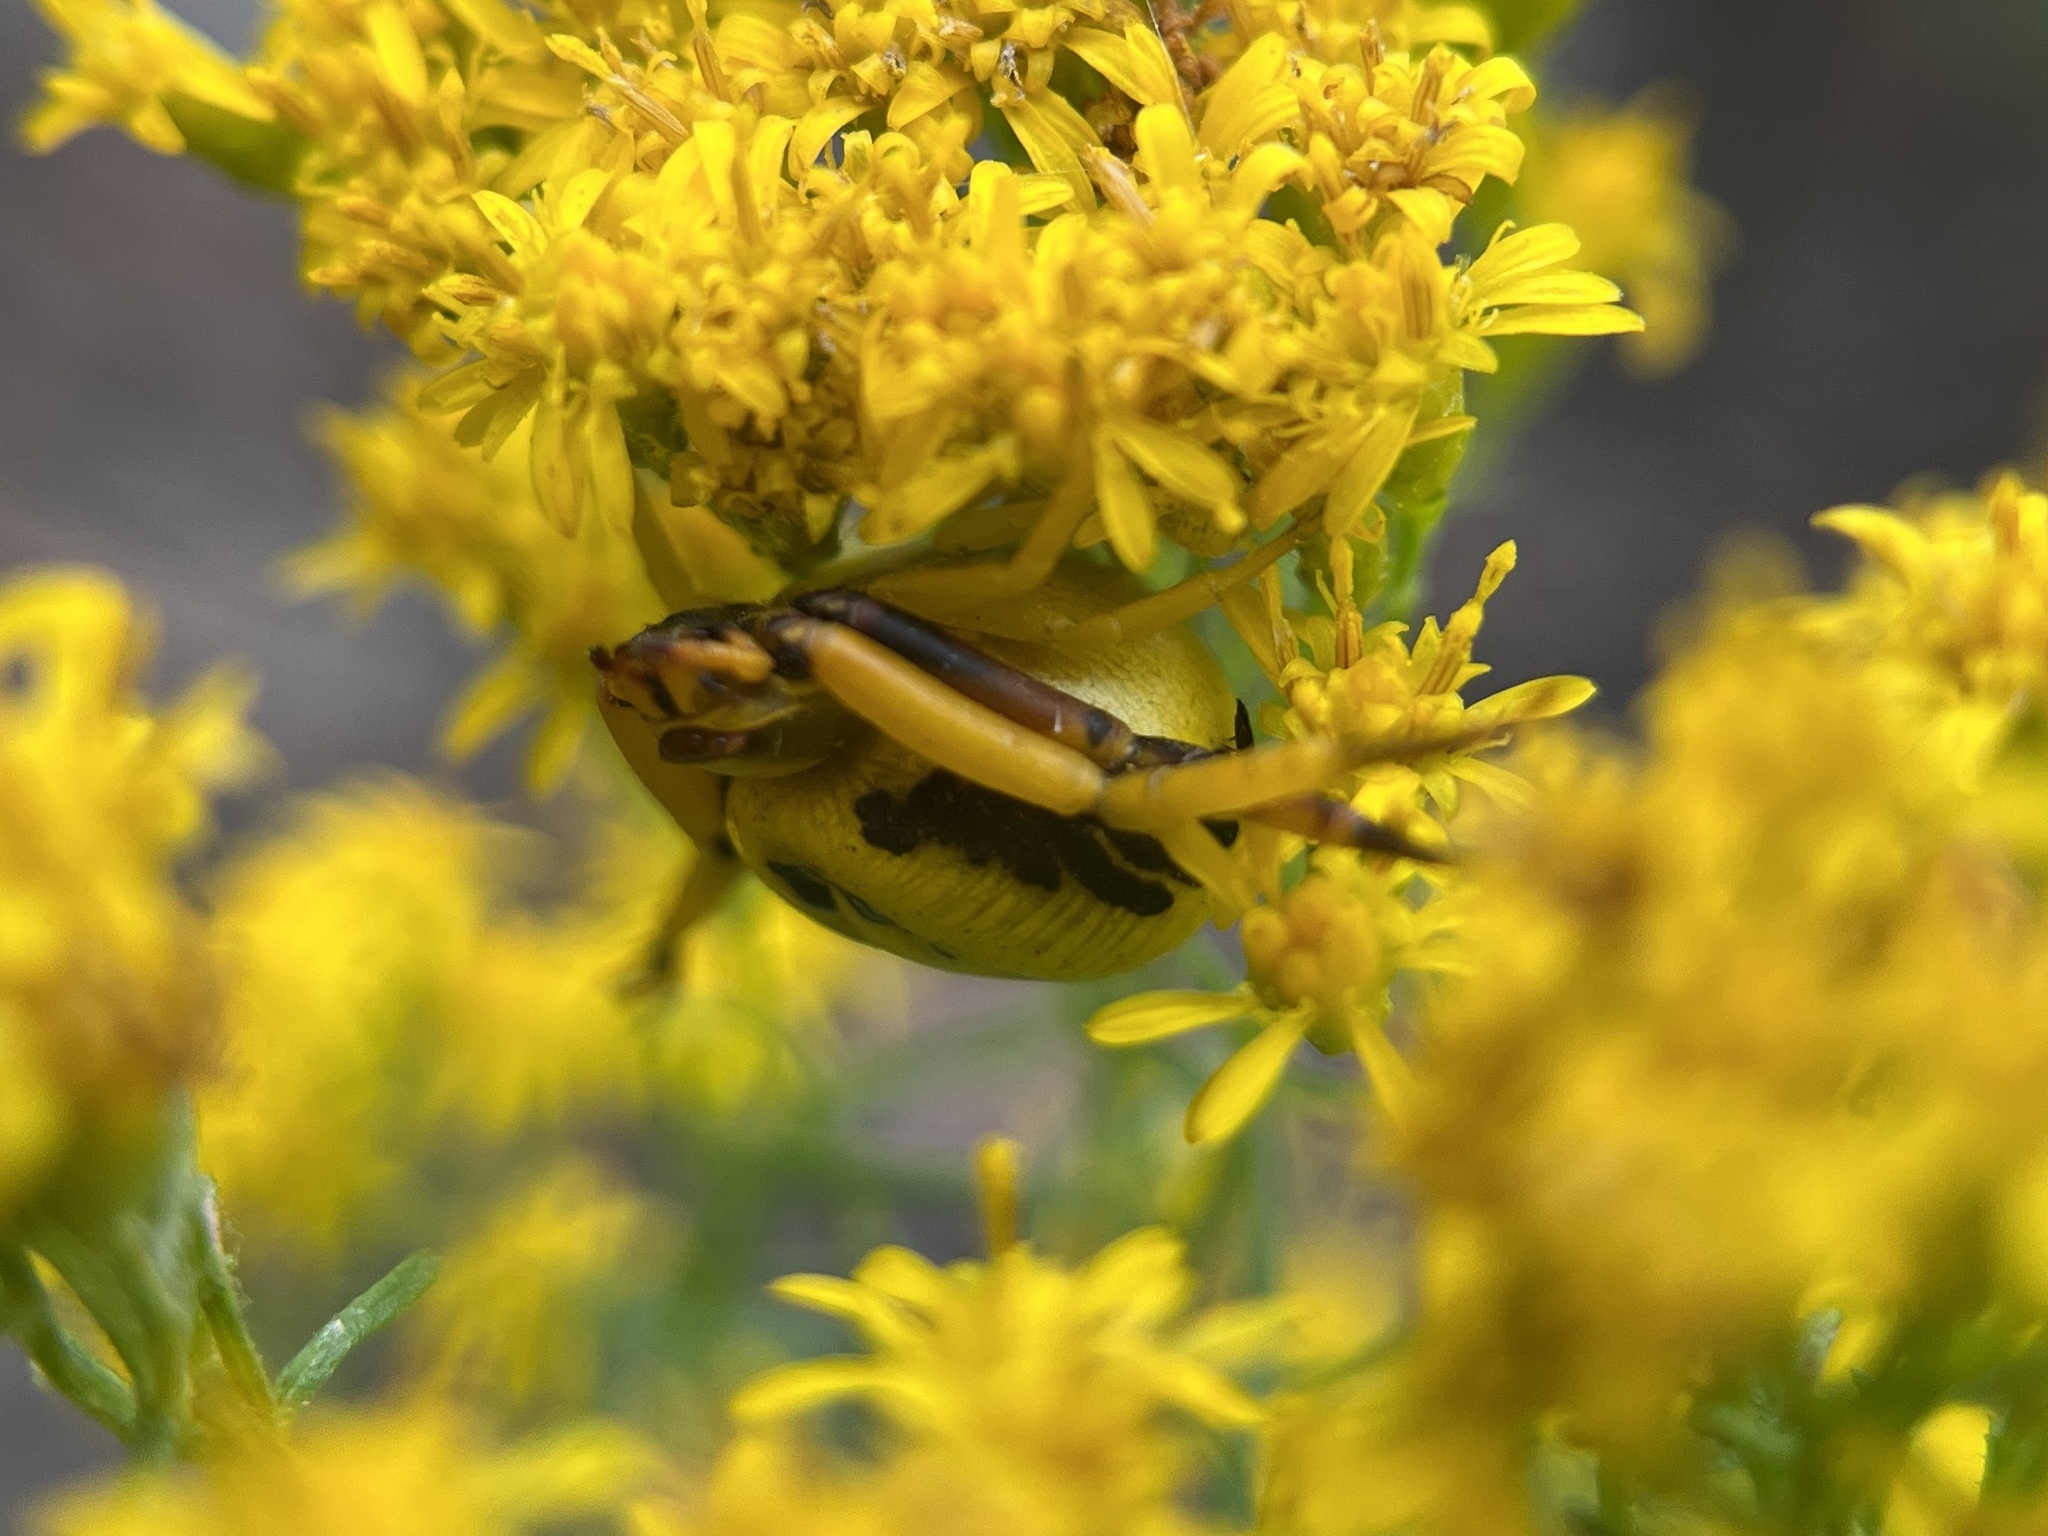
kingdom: Animalia
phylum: Arthropoda
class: Arachnida
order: Araneae
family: Thomisidae
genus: Misumenoides
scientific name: Misumenoides formosipes
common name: White-banded crab spider
